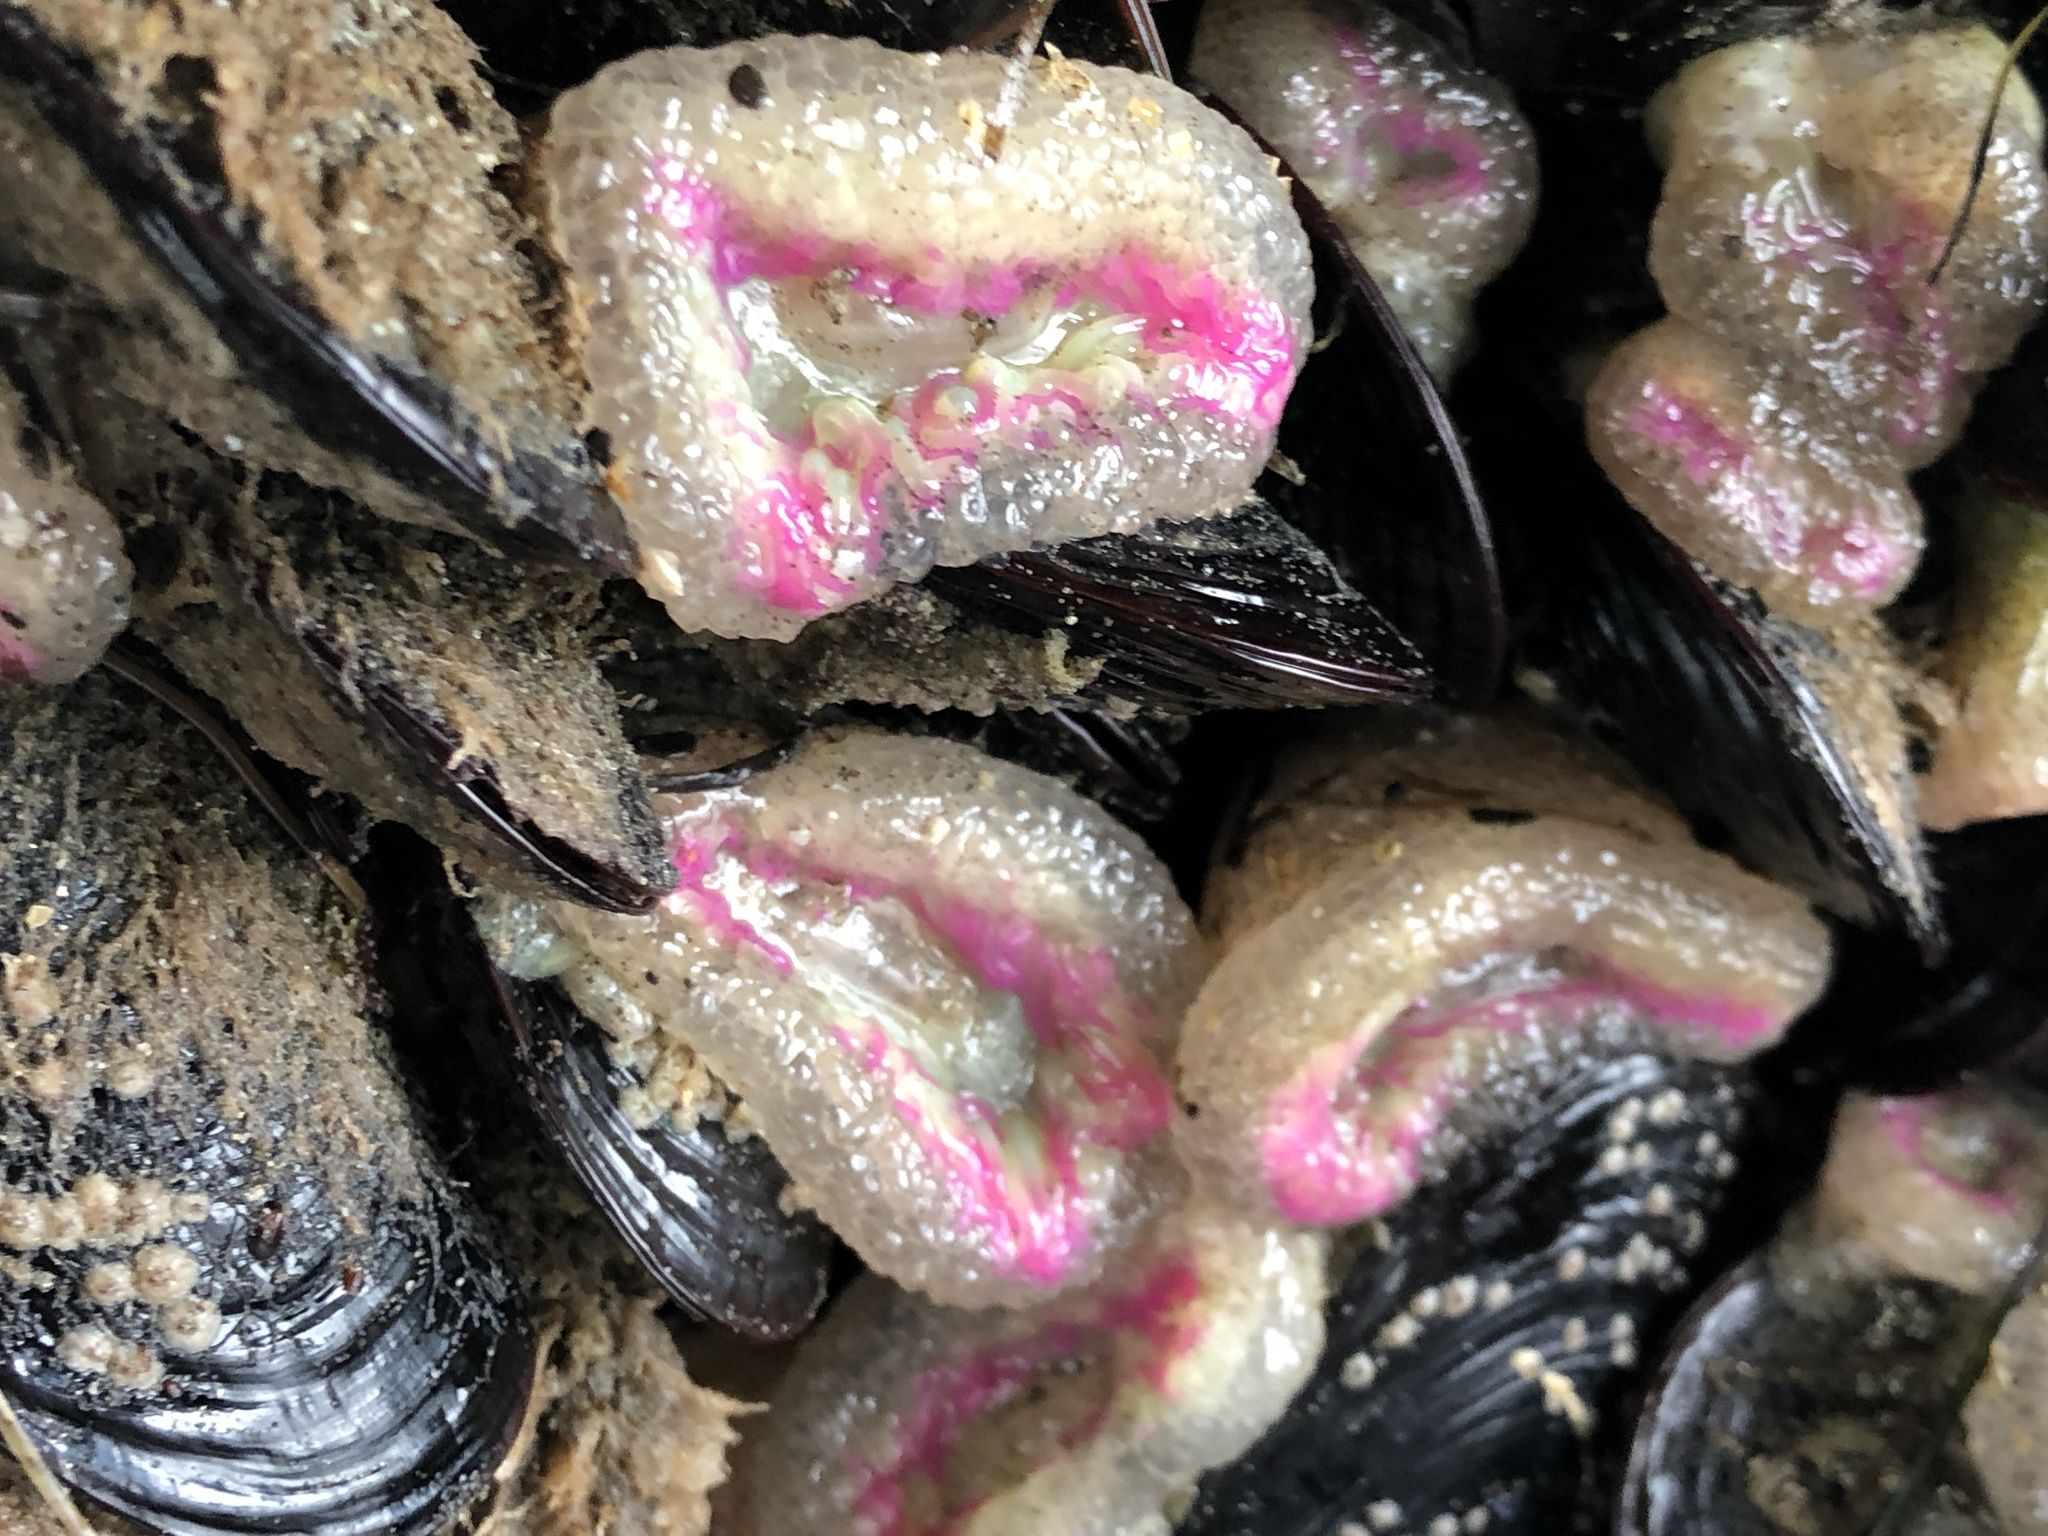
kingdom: Animalia
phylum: Cnidaria
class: Anthozoa
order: Actiniaria
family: Actiniidae
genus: Anthopleura
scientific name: Anthopleura elegantissima
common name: Clonal anemone
